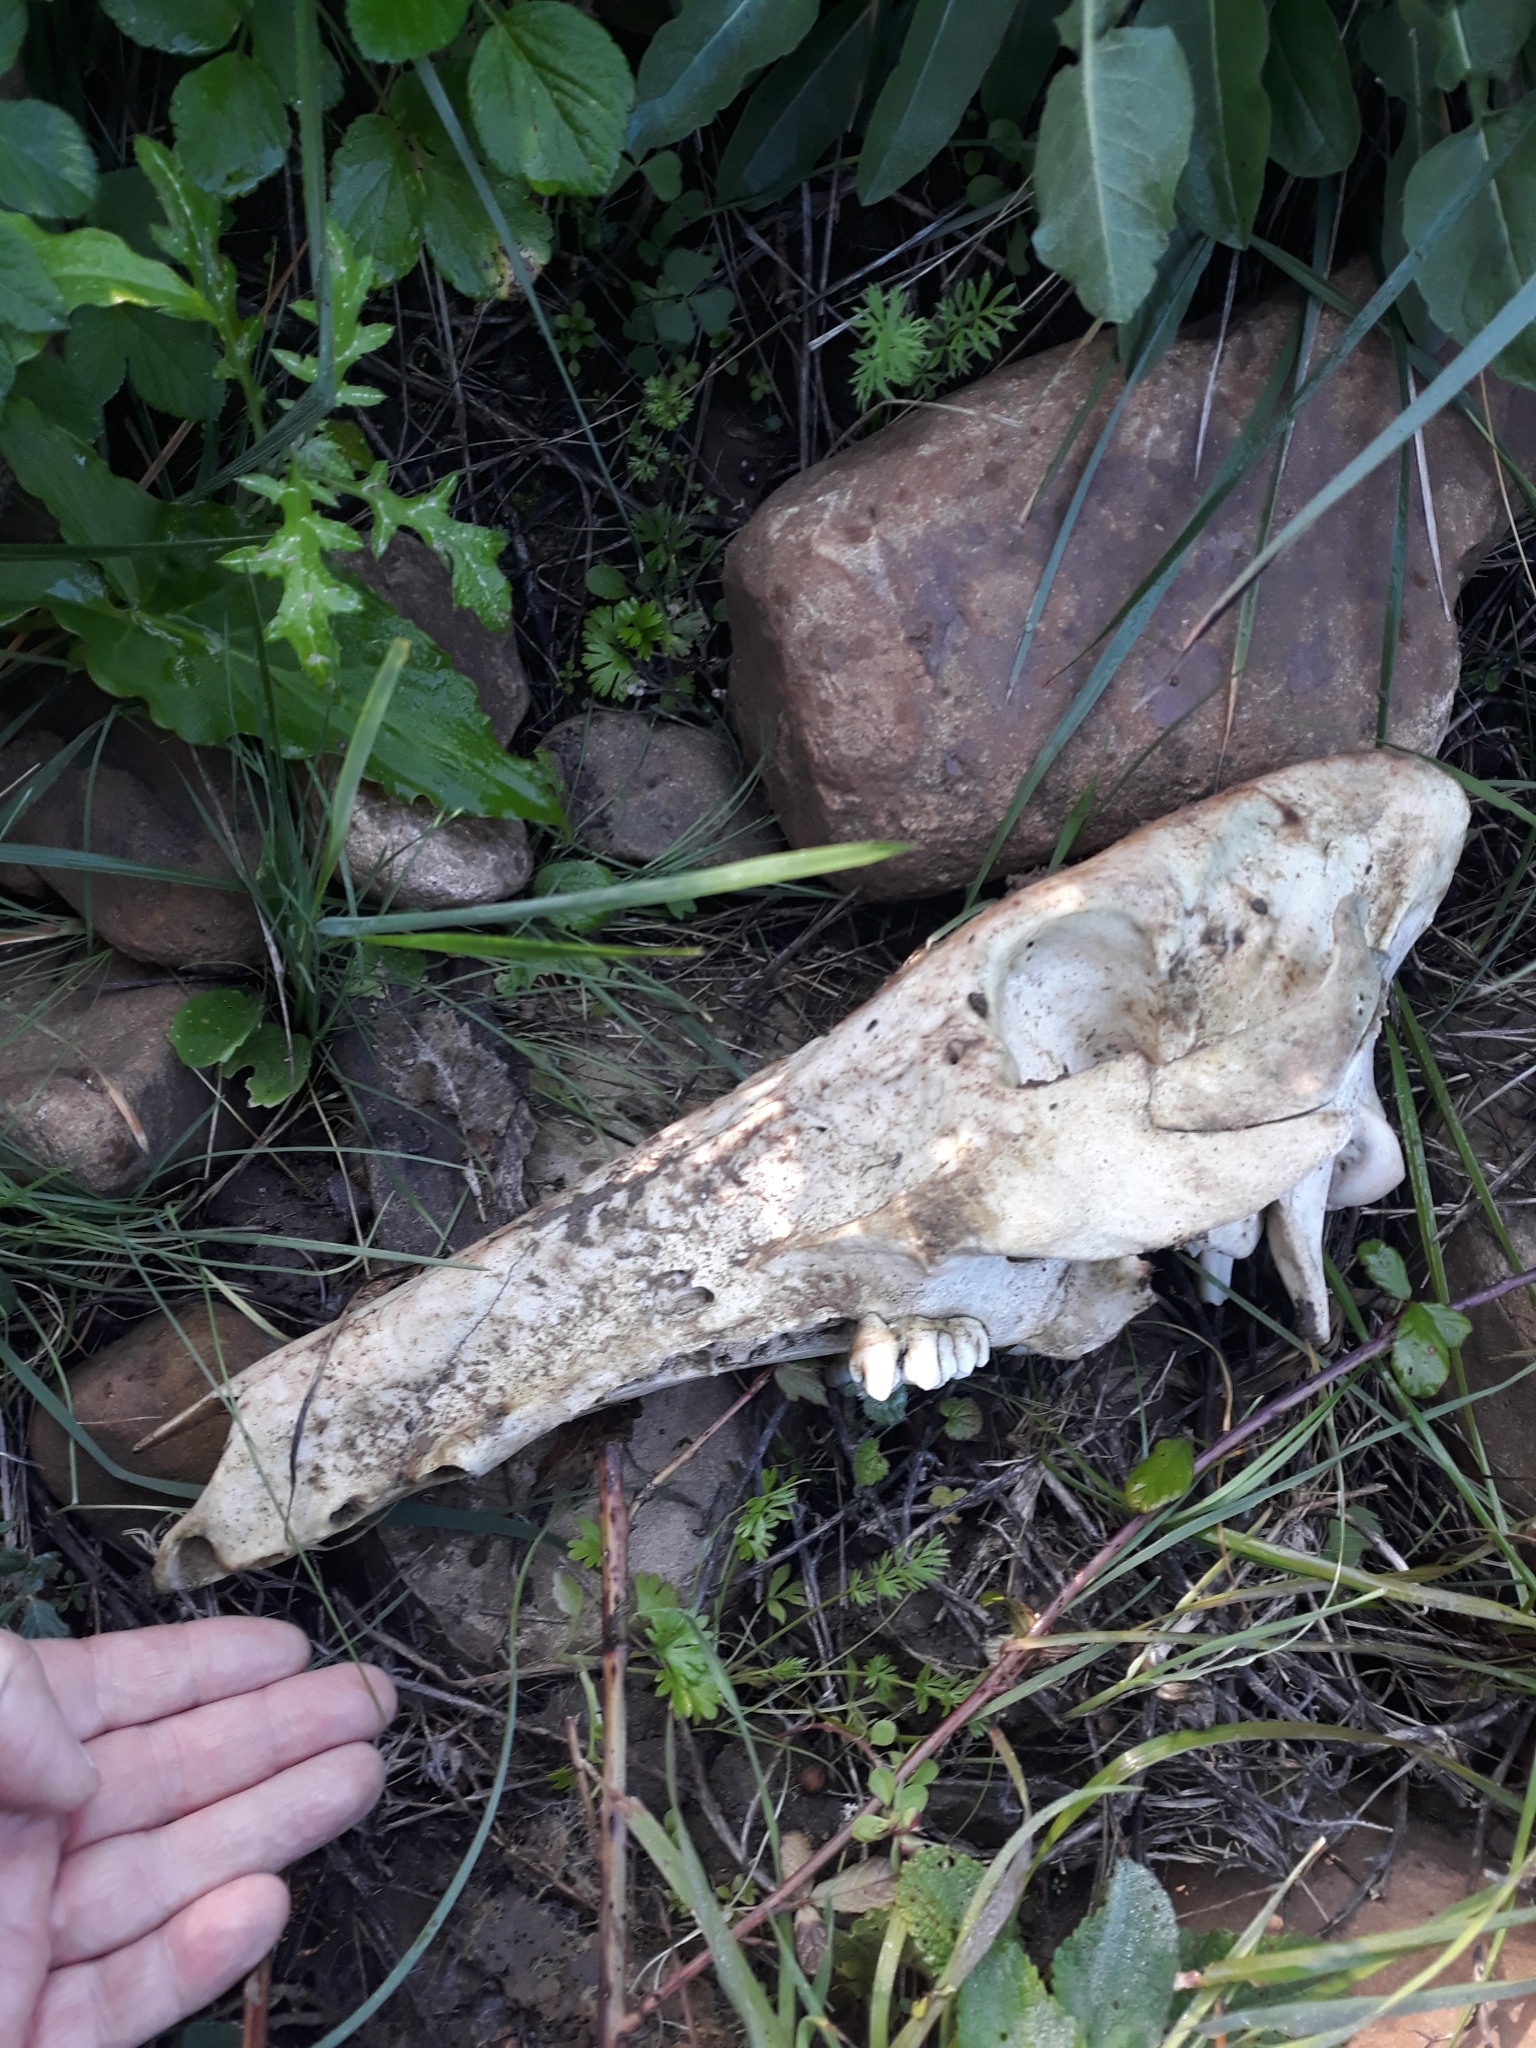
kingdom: Animalia
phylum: Chordata
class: Mammalia
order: Artiodactyla
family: Suidae
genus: Sus
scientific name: Sus scrofa
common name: Wild boar
